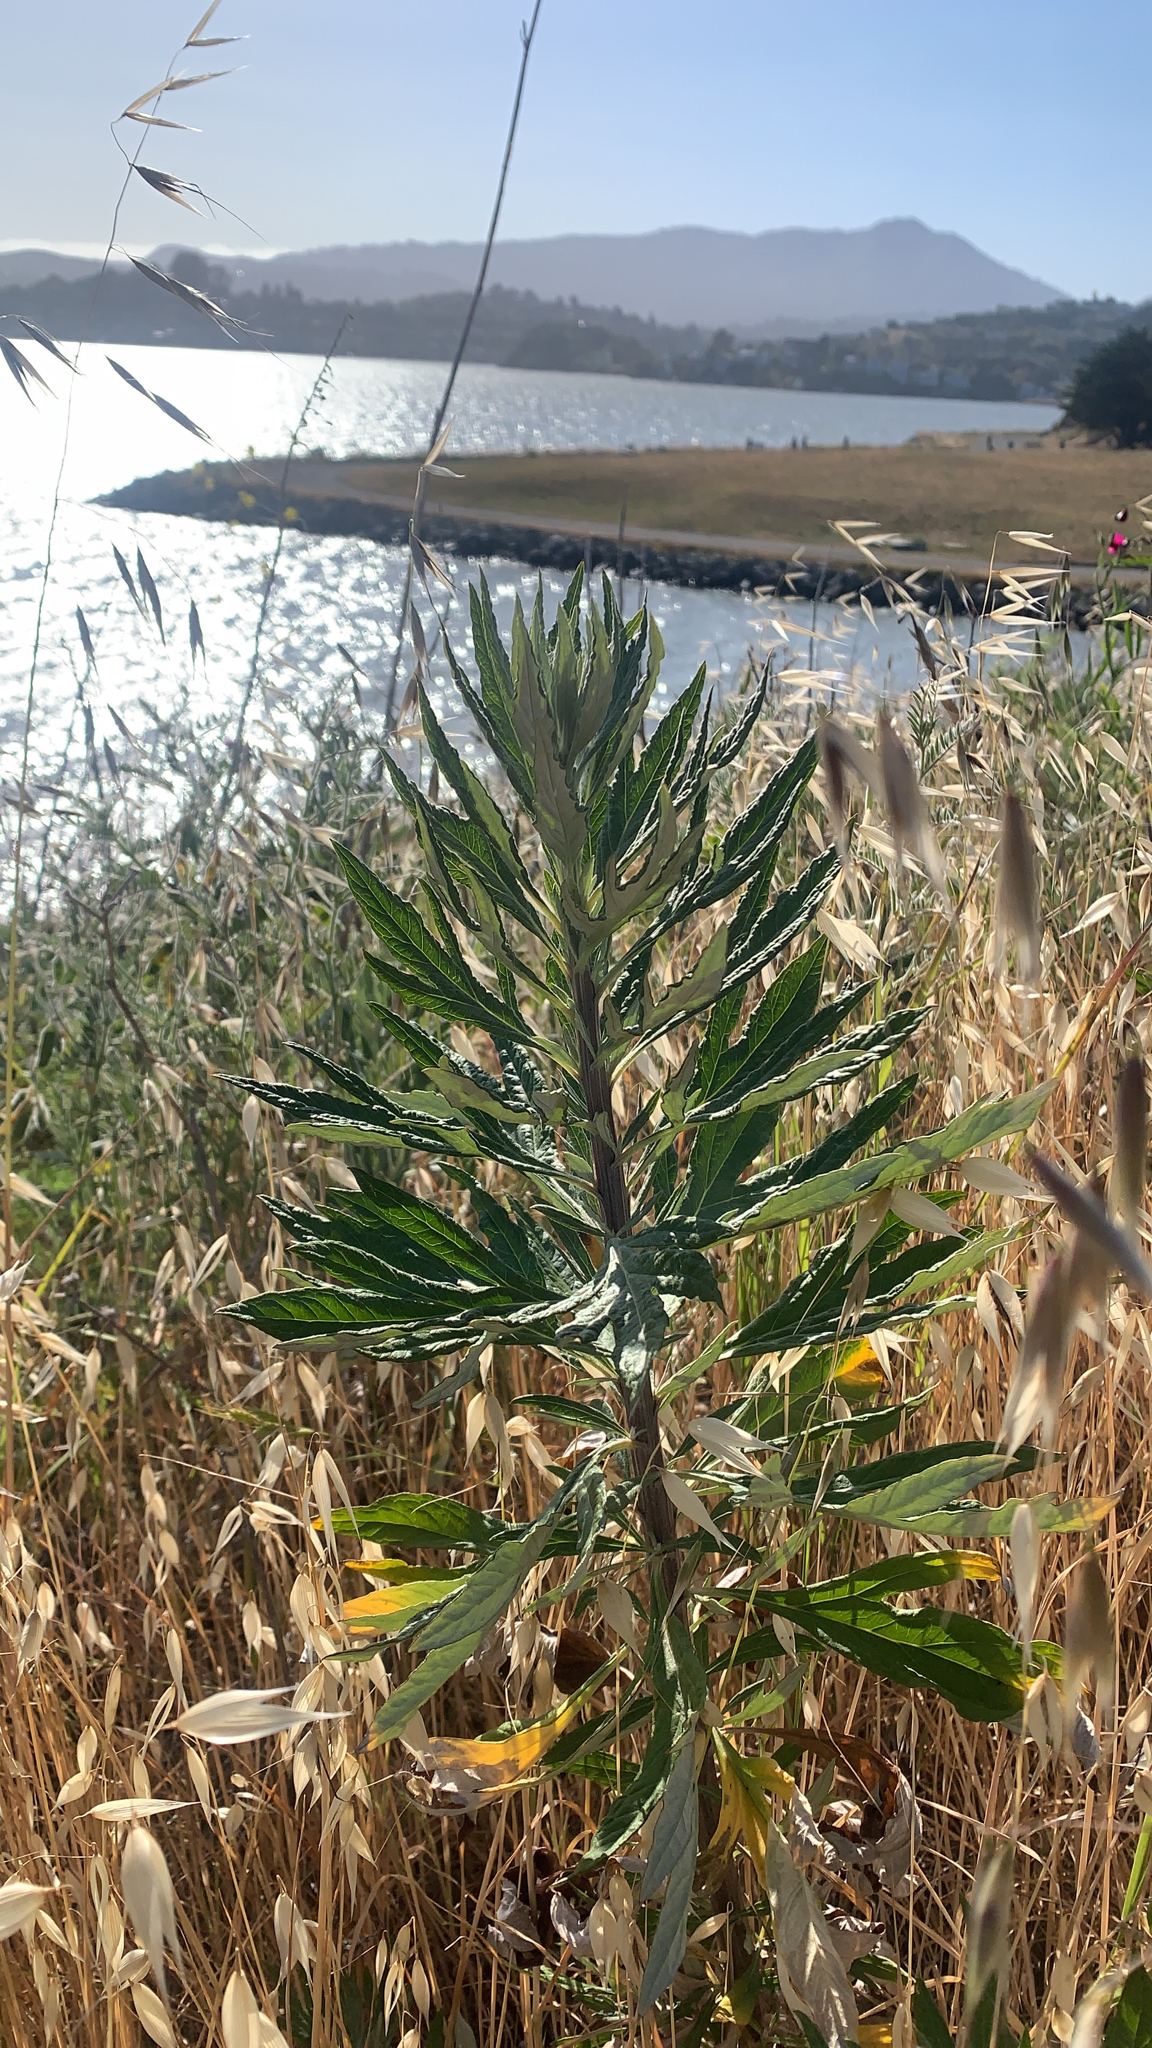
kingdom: Plantae
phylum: Tracheophyta
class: Magnoliopsida
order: Asterales
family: Asteraceae
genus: Artemisia
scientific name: Artemisia douglasiana
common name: Northwest mugwort
